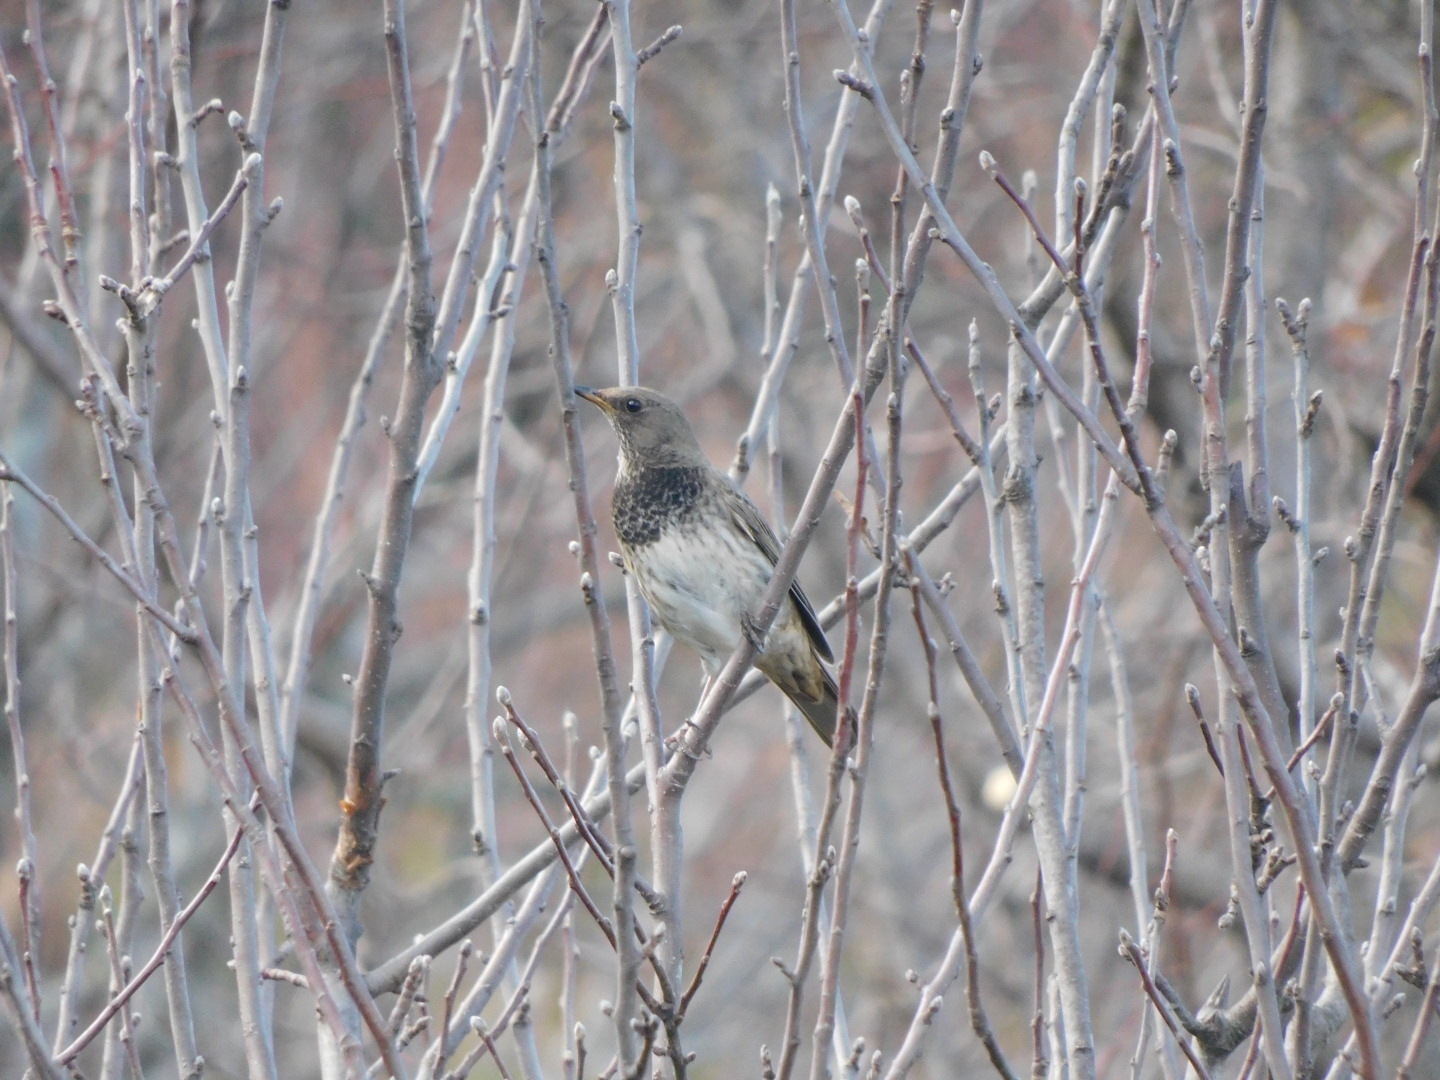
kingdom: Animalia
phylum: Chordata
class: Aves
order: Passeriformes
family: Turdidae
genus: Turdus
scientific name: Turdus atrogularis
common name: Black-throated thrush
